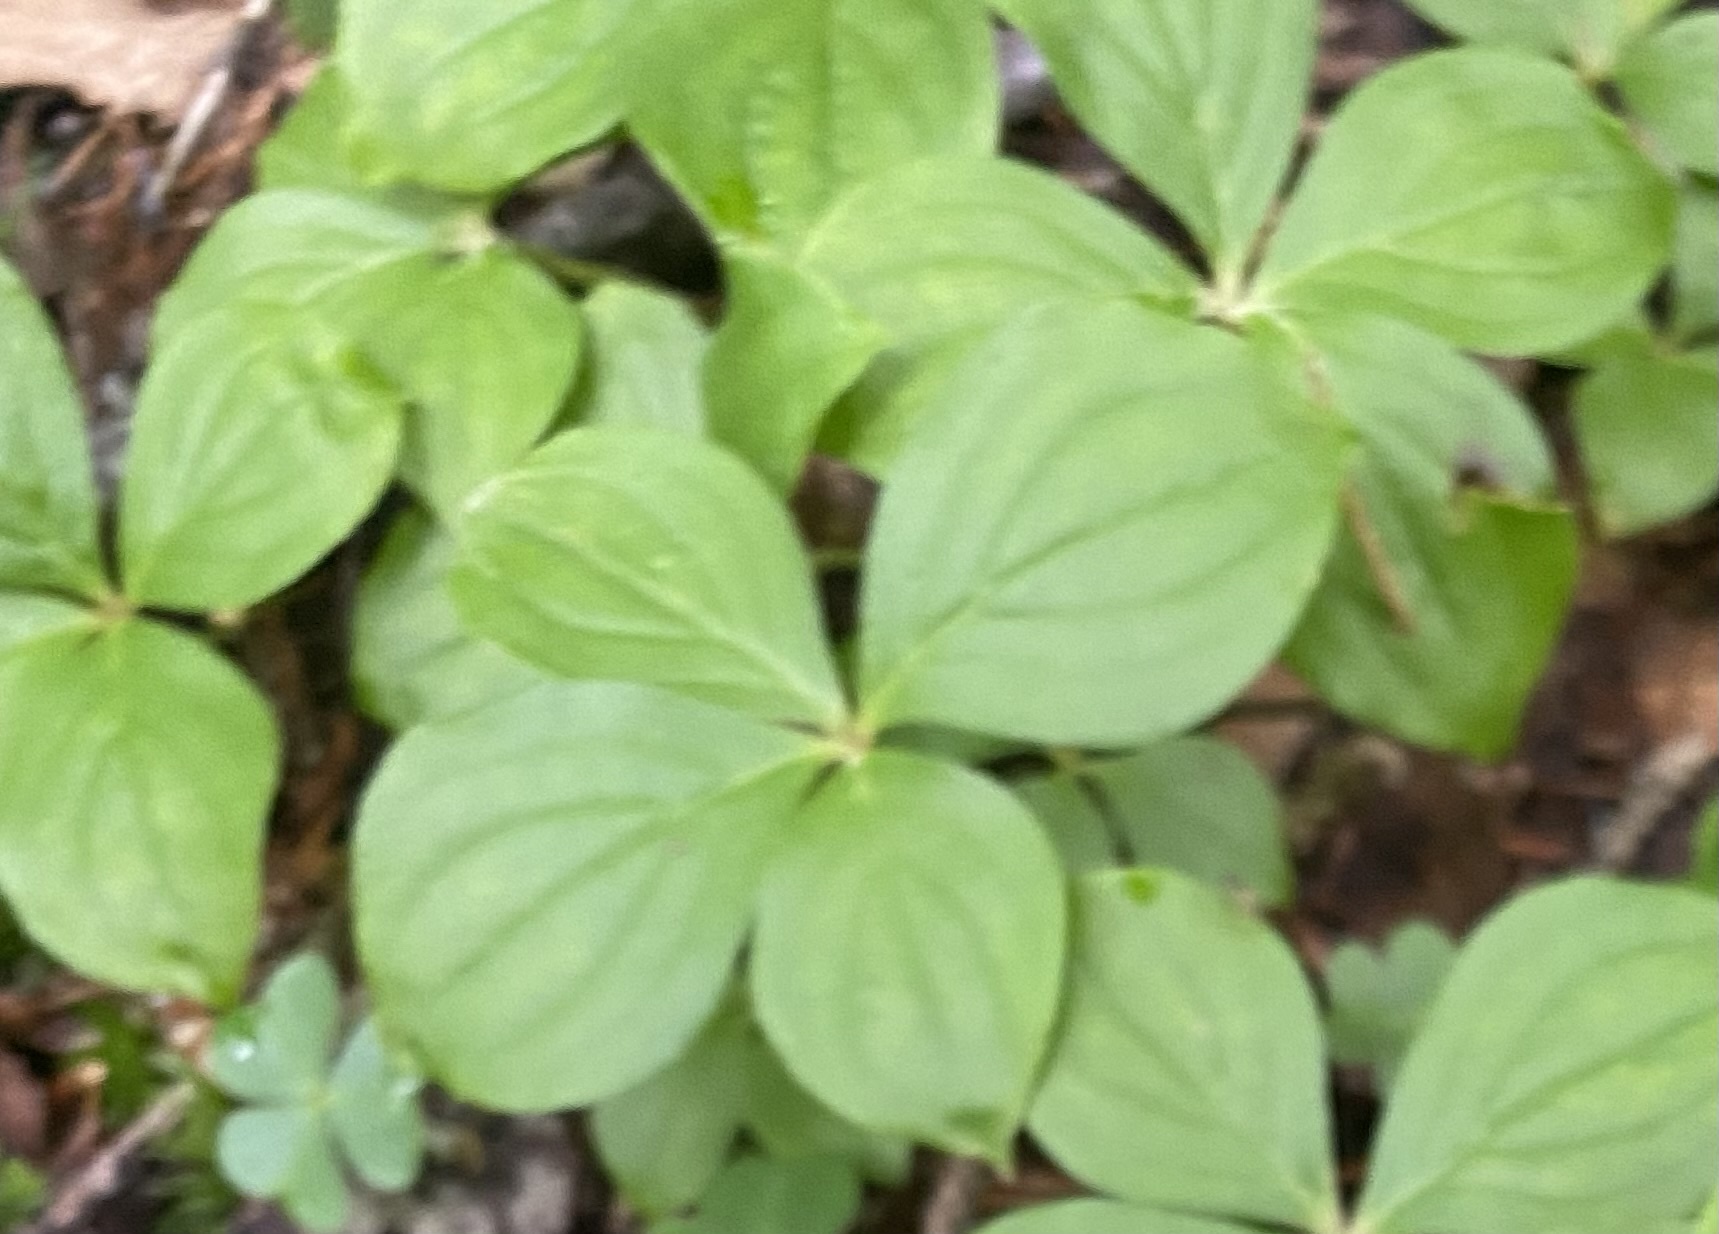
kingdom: Plantae
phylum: Tracheophyta
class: Magnoliopsida
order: Cornales
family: Cornaceae
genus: Cornus
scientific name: Cornus canadensis
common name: Creeping dogwood
